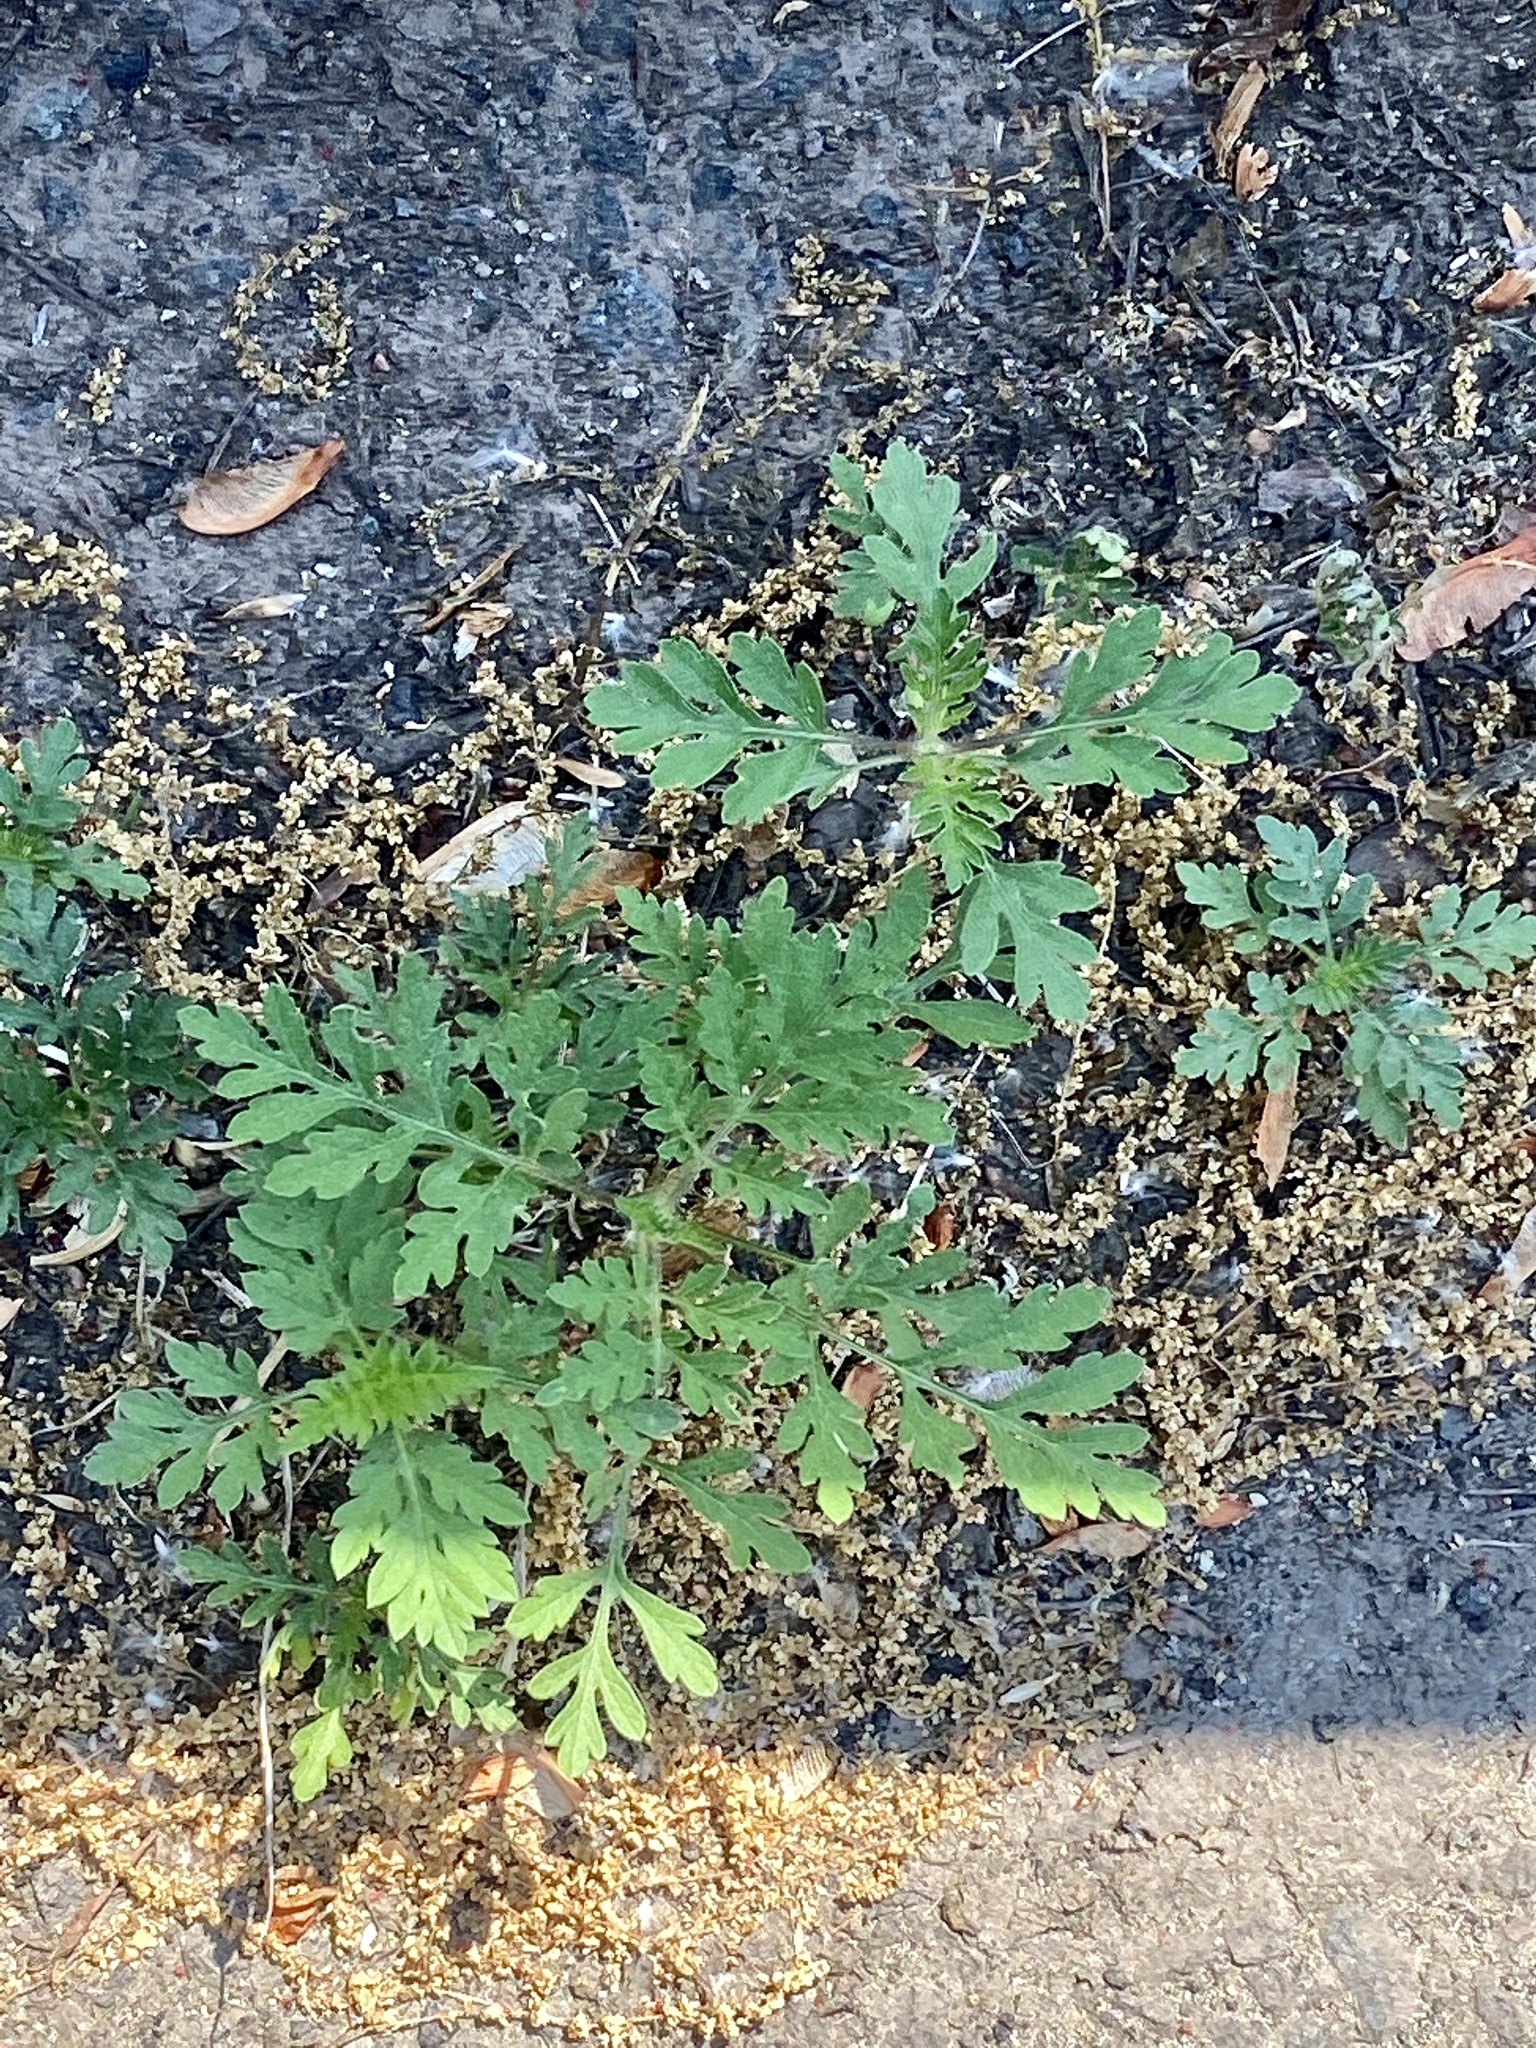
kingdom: Plantae
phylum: Tracheophyta
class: Magnoliopsida
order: Asterales
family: Asteraceae
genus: Ambrosia
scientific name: Ambrosia artemisiifolia
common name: Annual ragweed
